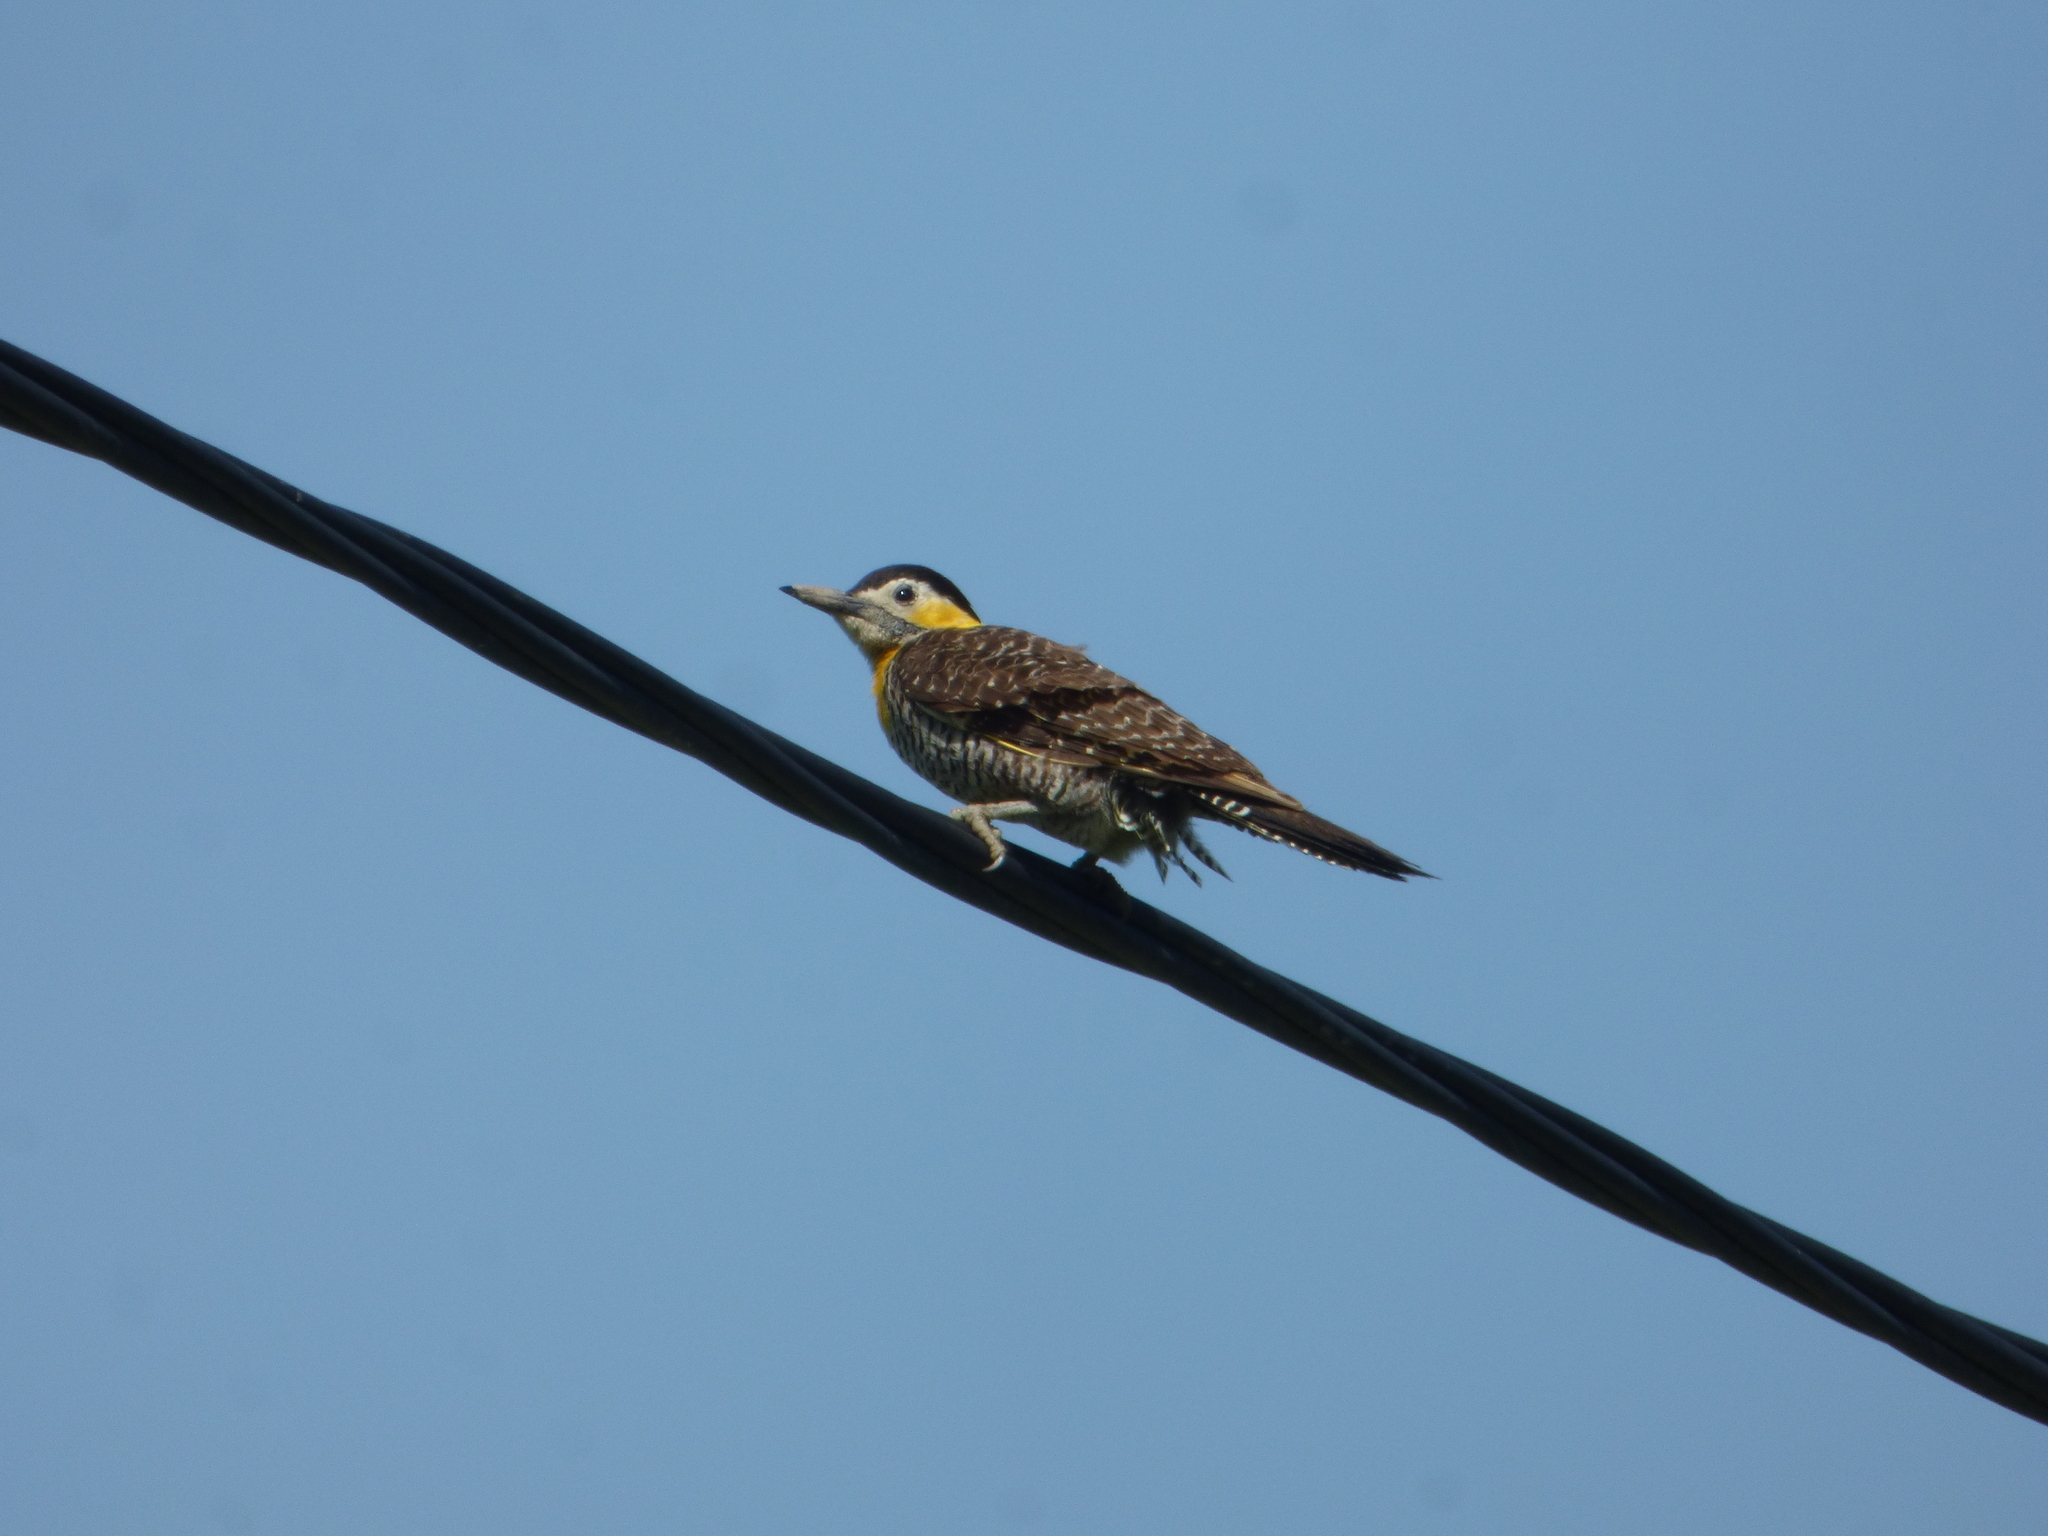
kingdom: Animalia
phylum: Chordata
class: Aves
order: Piciformes
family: Picidae
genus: Colaptes
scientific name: Colaptes campestris
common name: Campo flicker
